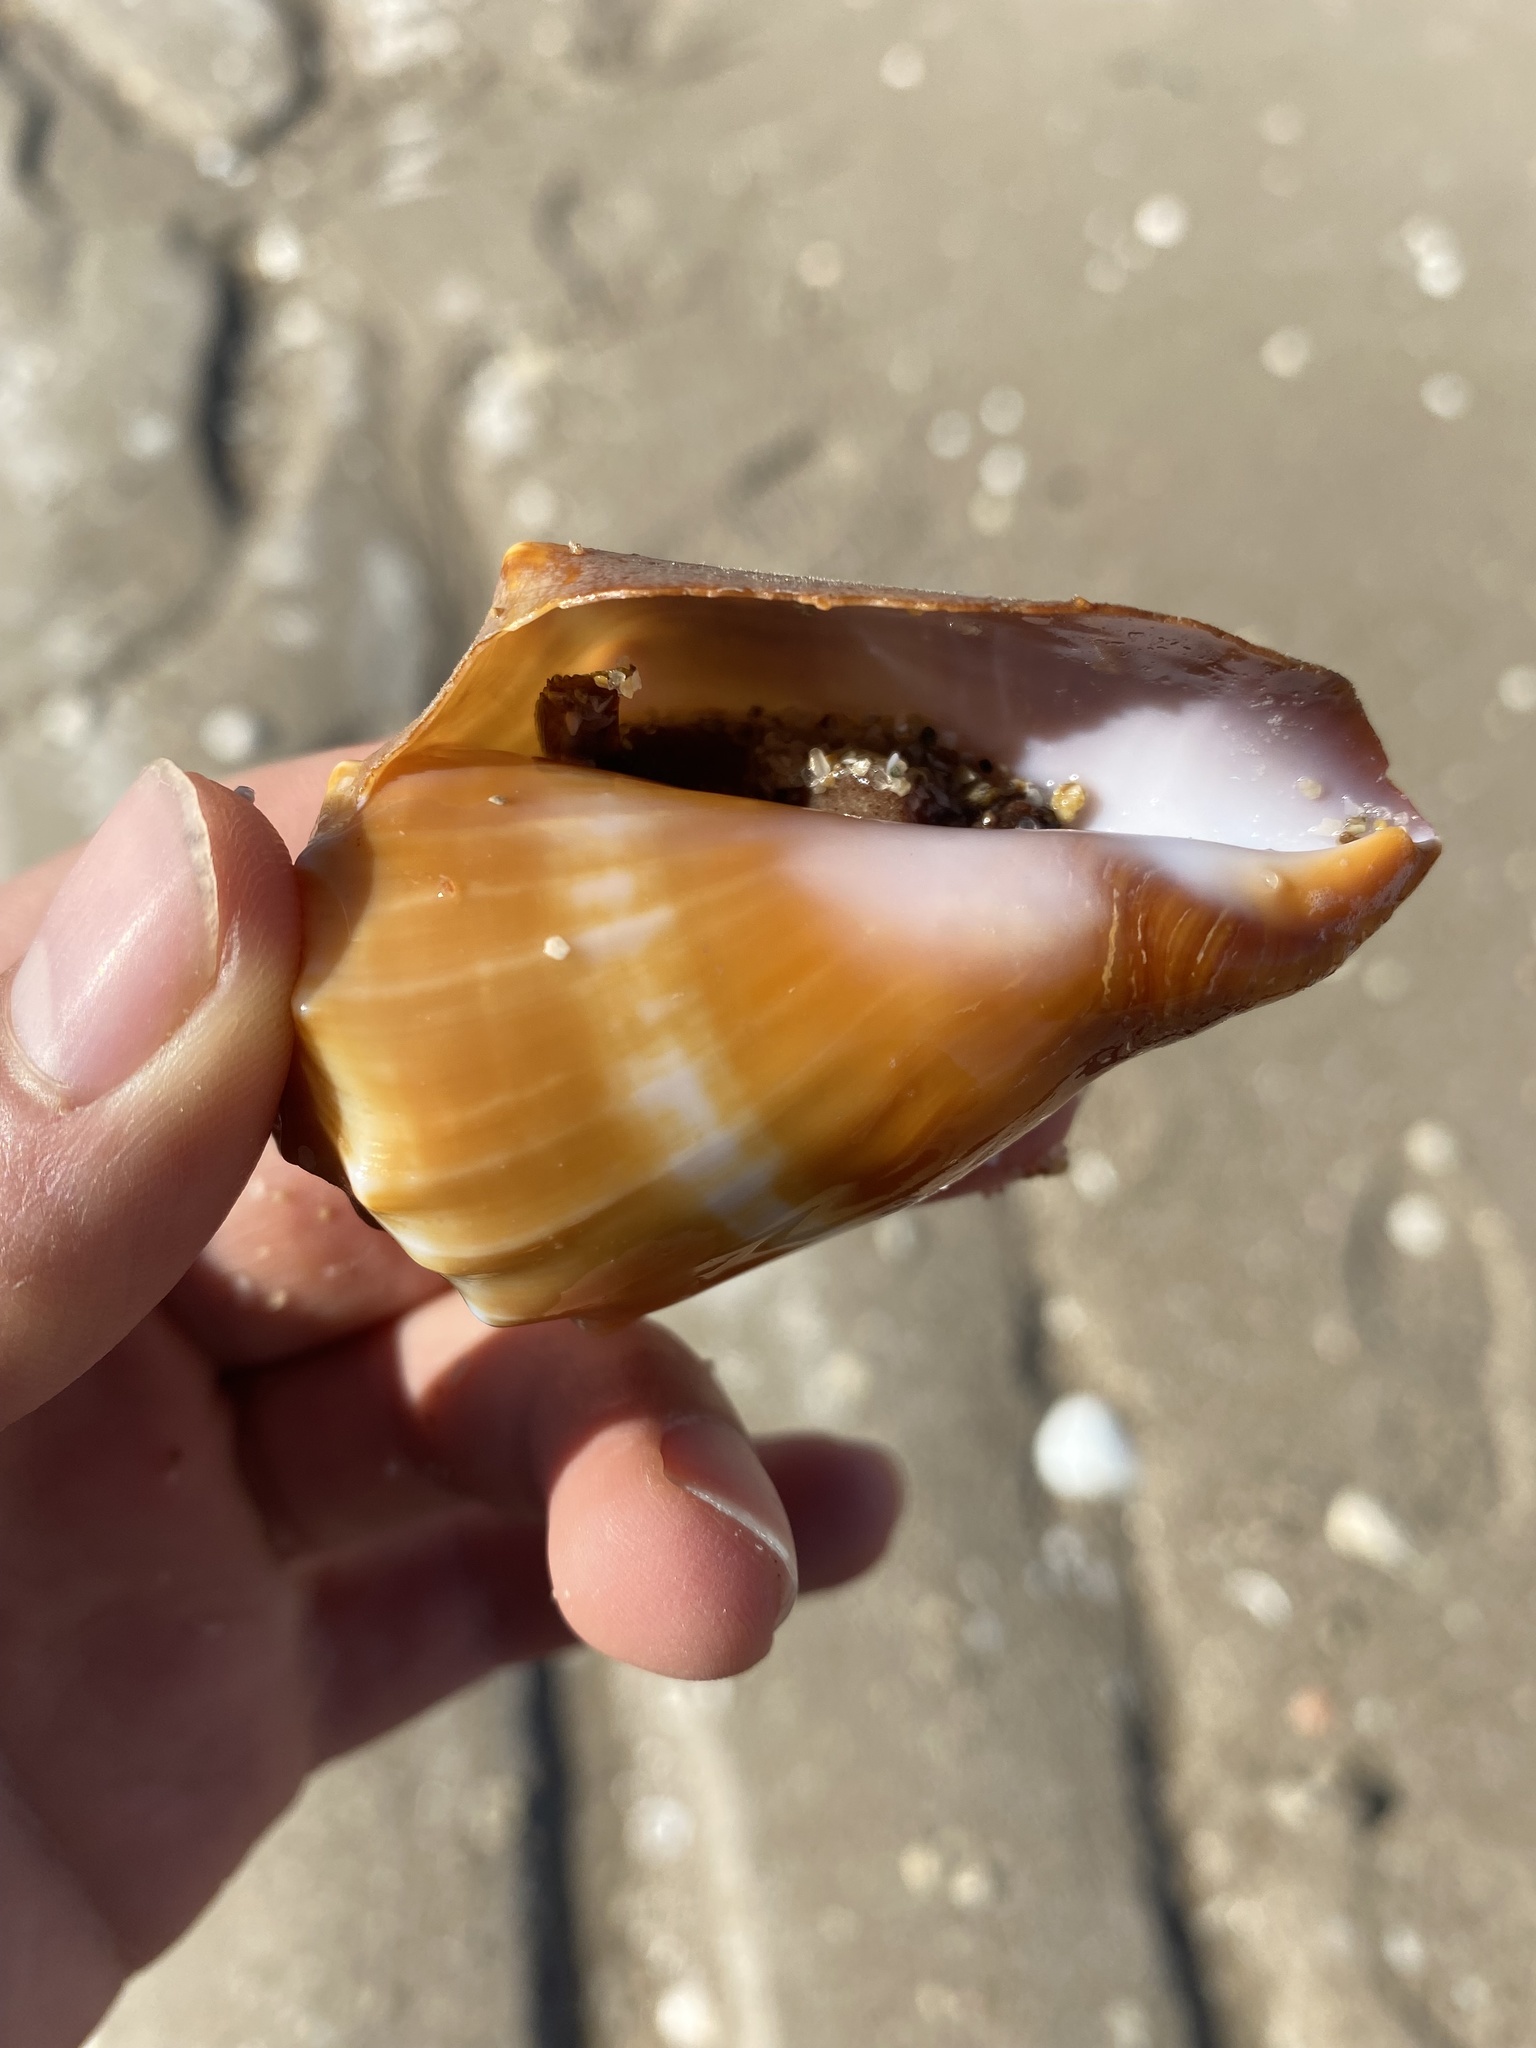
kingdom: Animalia
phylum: Mollusca
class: Gastropoda
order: Littorinimorpha
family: Strombidae
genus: Strombus
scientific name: Strombus gracilior
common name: Eastern pacific fighting conch
